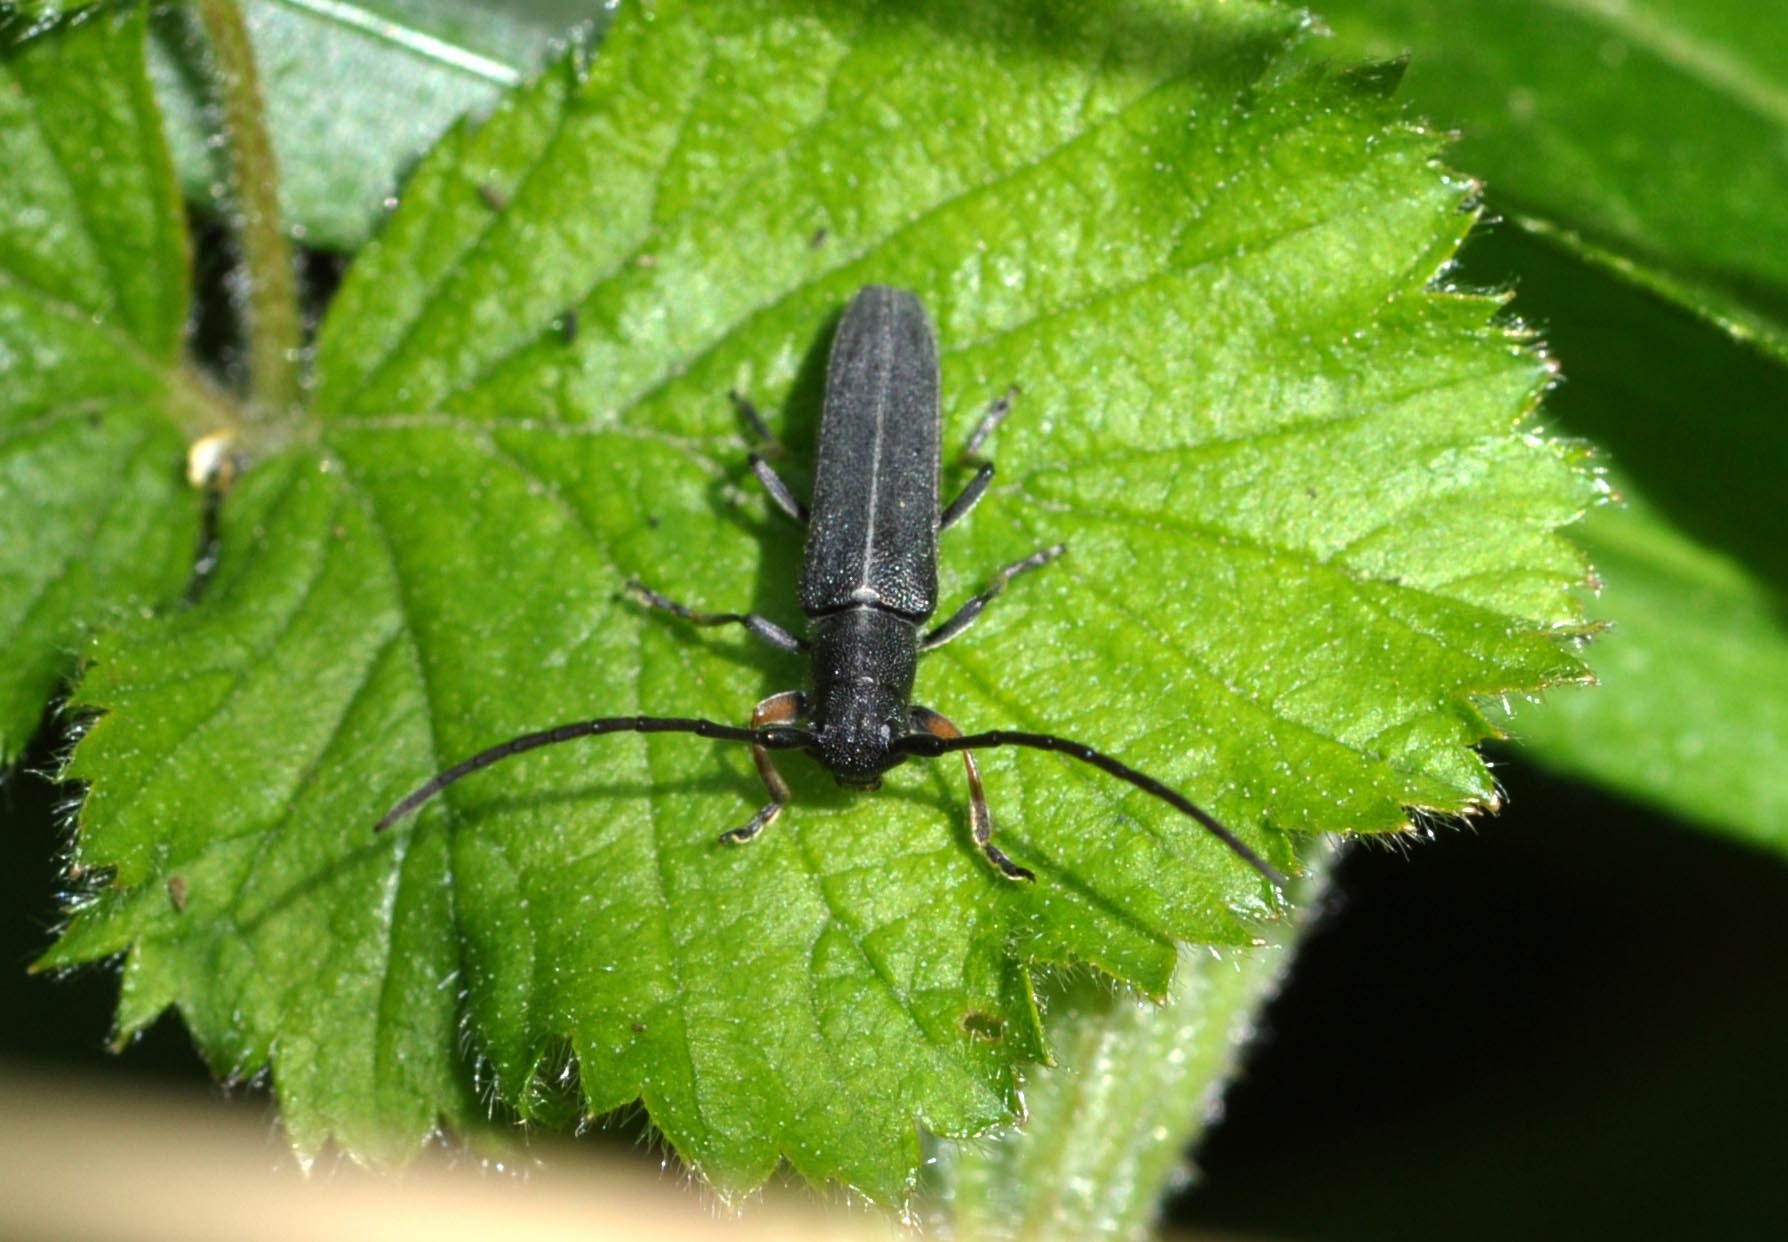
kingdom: Animalia
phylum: Arthropoda
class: Insecta
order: Coleoptera
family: Cerambycidae
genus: Phytoecia
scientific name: Phytoecia cylindrica
